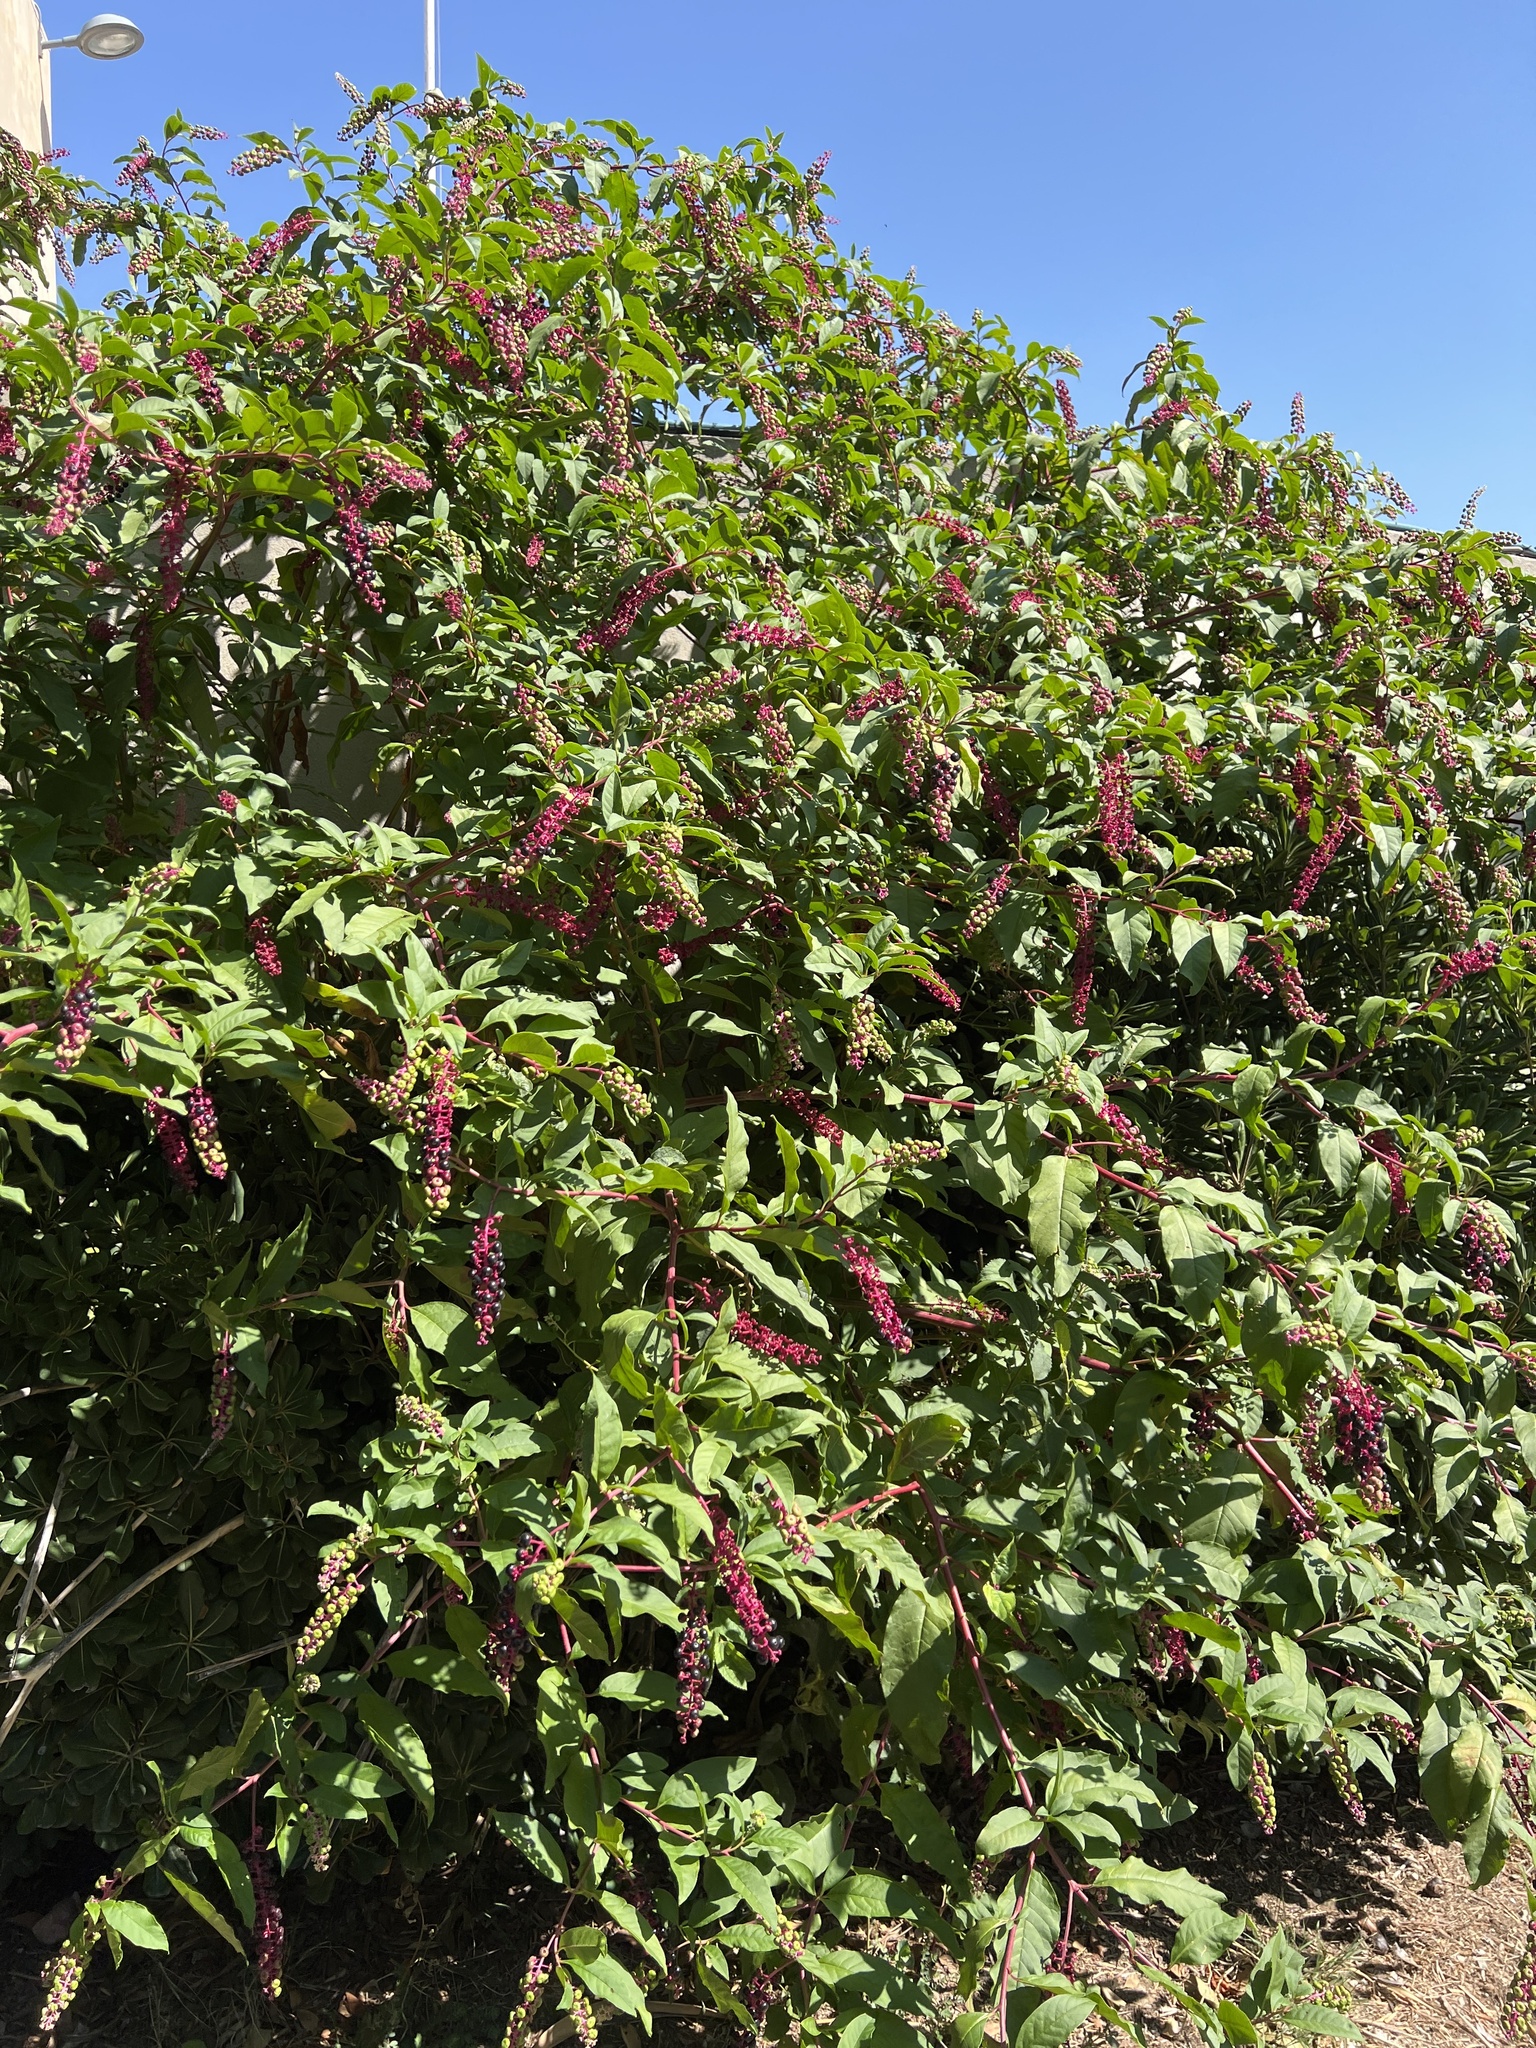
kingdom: Plantae
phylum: Tracheophyta
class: Magnoliopsida
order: Caryophyllales
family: Phytolaccaceae
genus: Phytolacca
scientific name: Phytolacca americana
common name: American pokeweed
